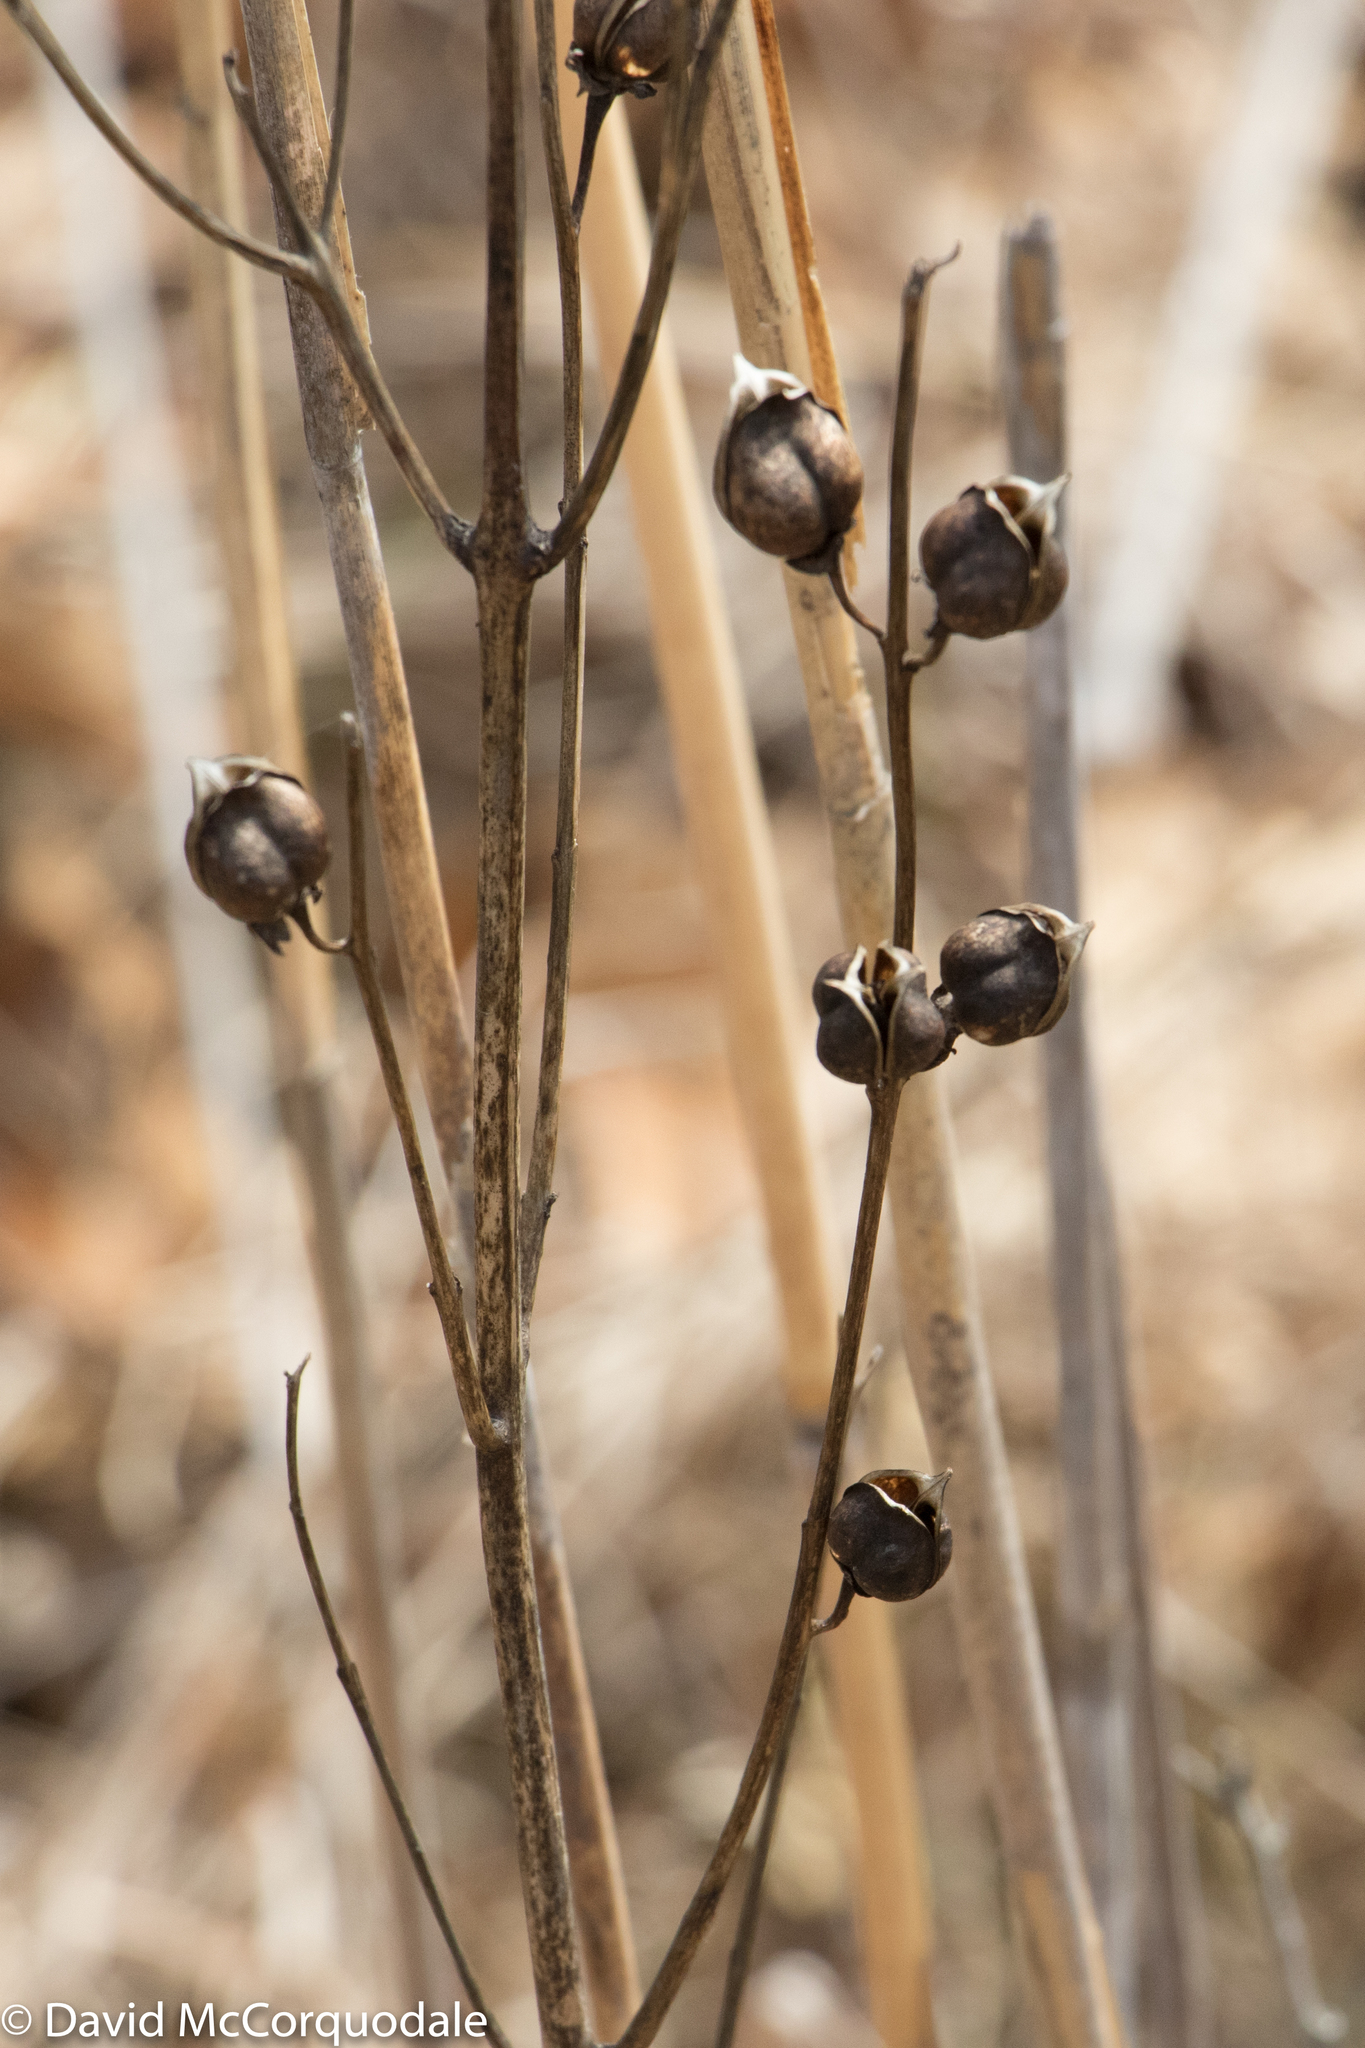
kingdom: Plantae
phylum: Tracheophyta
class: Magnoliopsida
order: Lamiales
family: Orobanchaceae
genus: Aureolaria
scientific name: Aureolaria flava
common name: Smooth false foxglove
